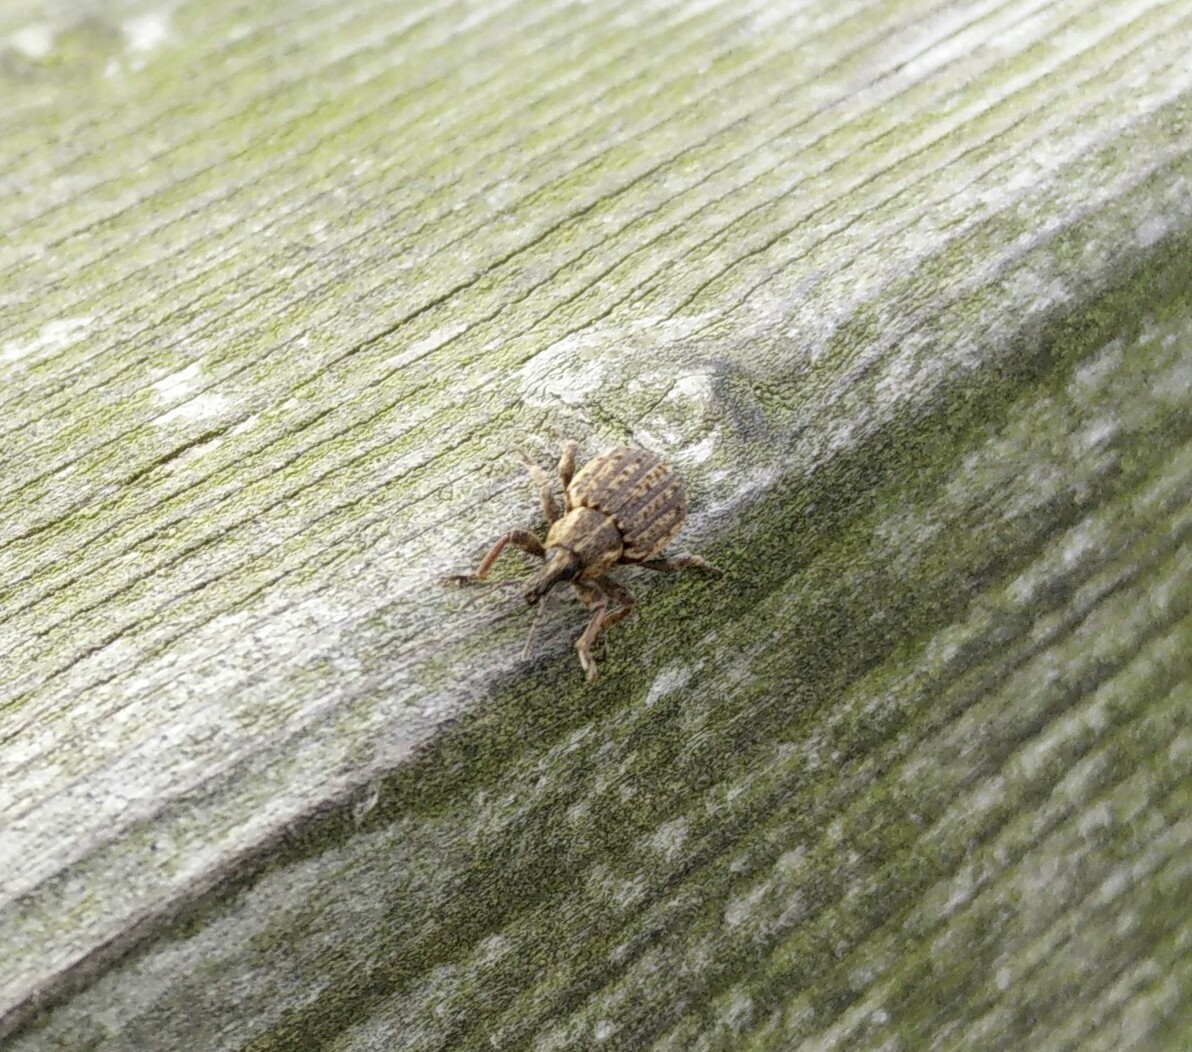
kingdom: Animalia
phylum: Arthropoda
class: Insecta
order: Coleoptera
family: Curculionidae
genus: Brachypera
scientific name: Brachypera zoilus
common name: Clover leaf weevil
